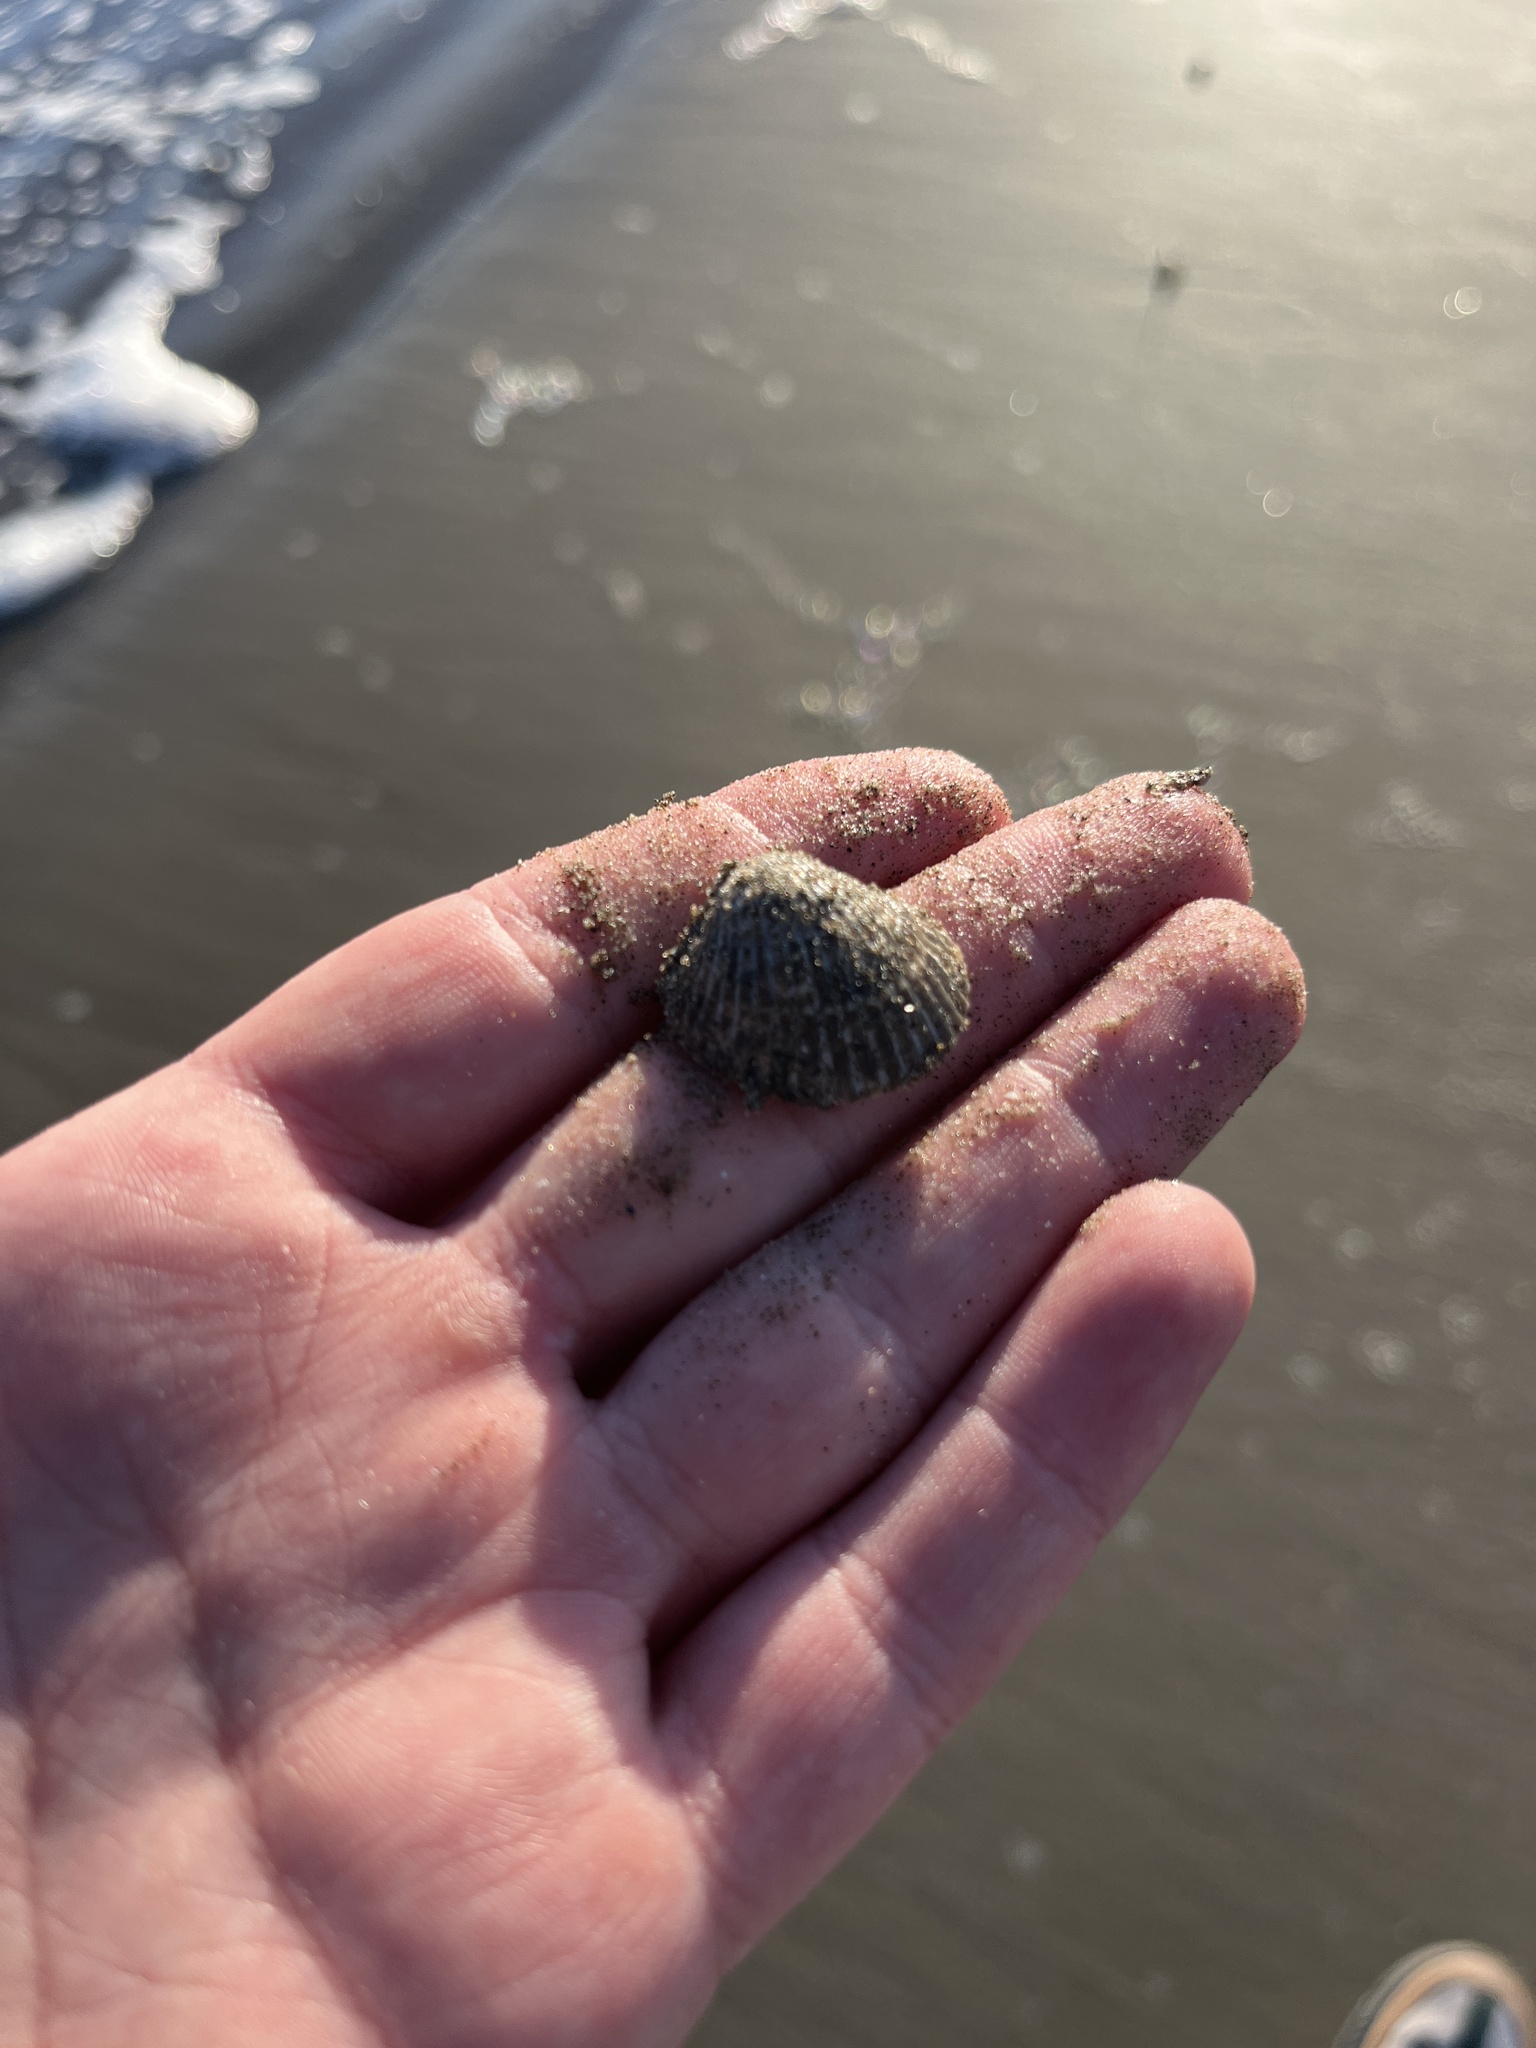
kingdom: Animalia
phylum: Mollusca
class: Bivalvia
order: Arcida
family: Arcidae
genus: Lunarca
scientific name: Lunarca ovalis
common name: Blood ark
